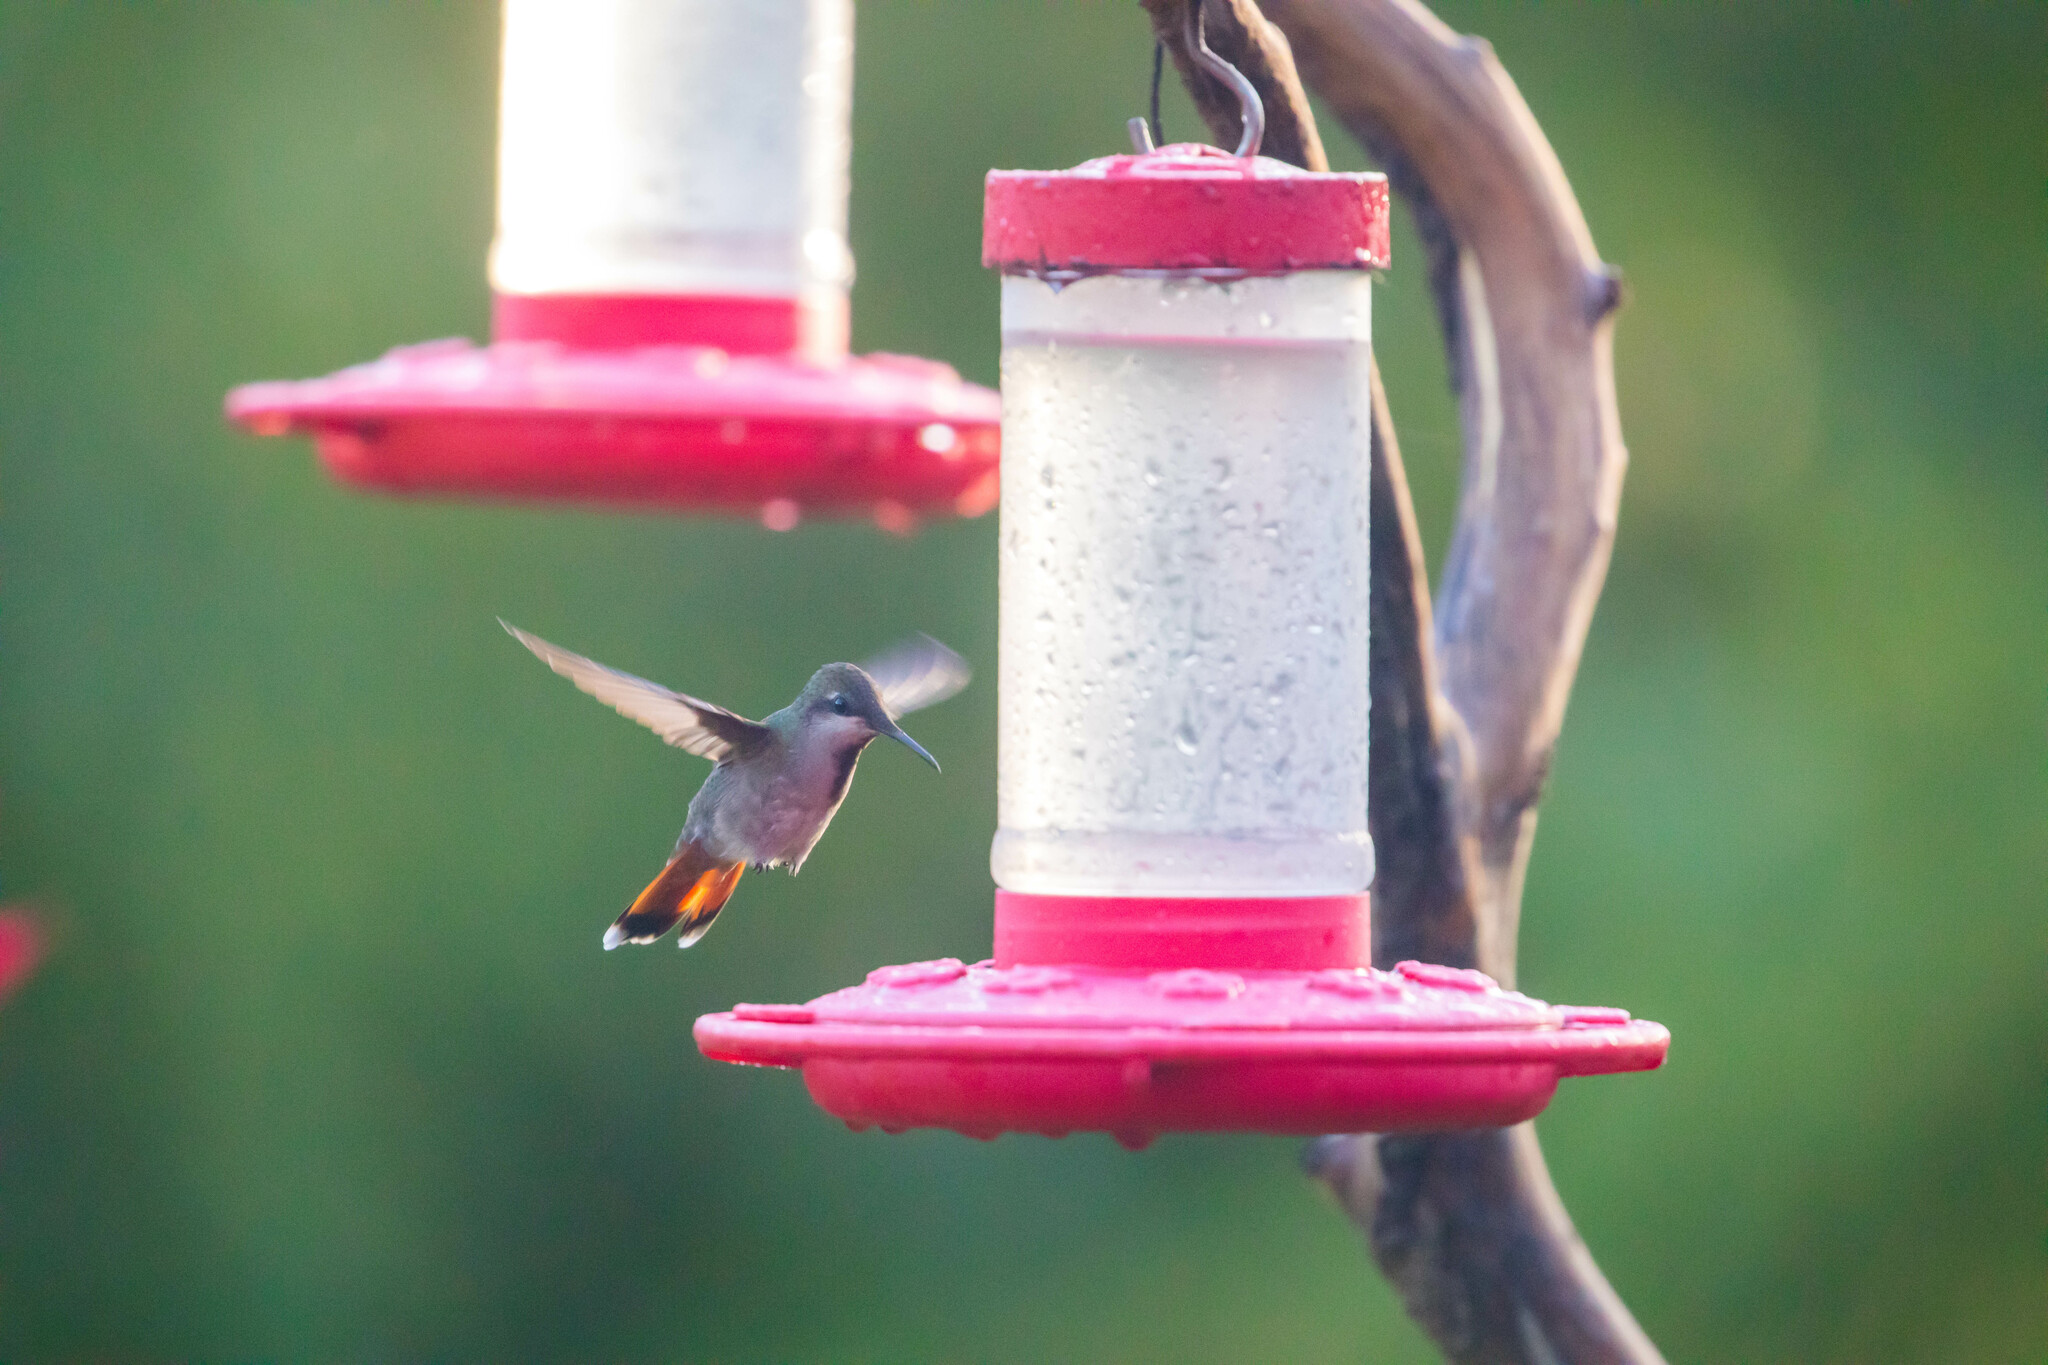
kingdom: Animalia
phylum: Chordata
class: Aves
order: Apodiformes
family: Trochilidae
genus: Chrysolampis
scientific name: Chrysolampis mosquitus
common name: Ruby-topaz hummingbird
